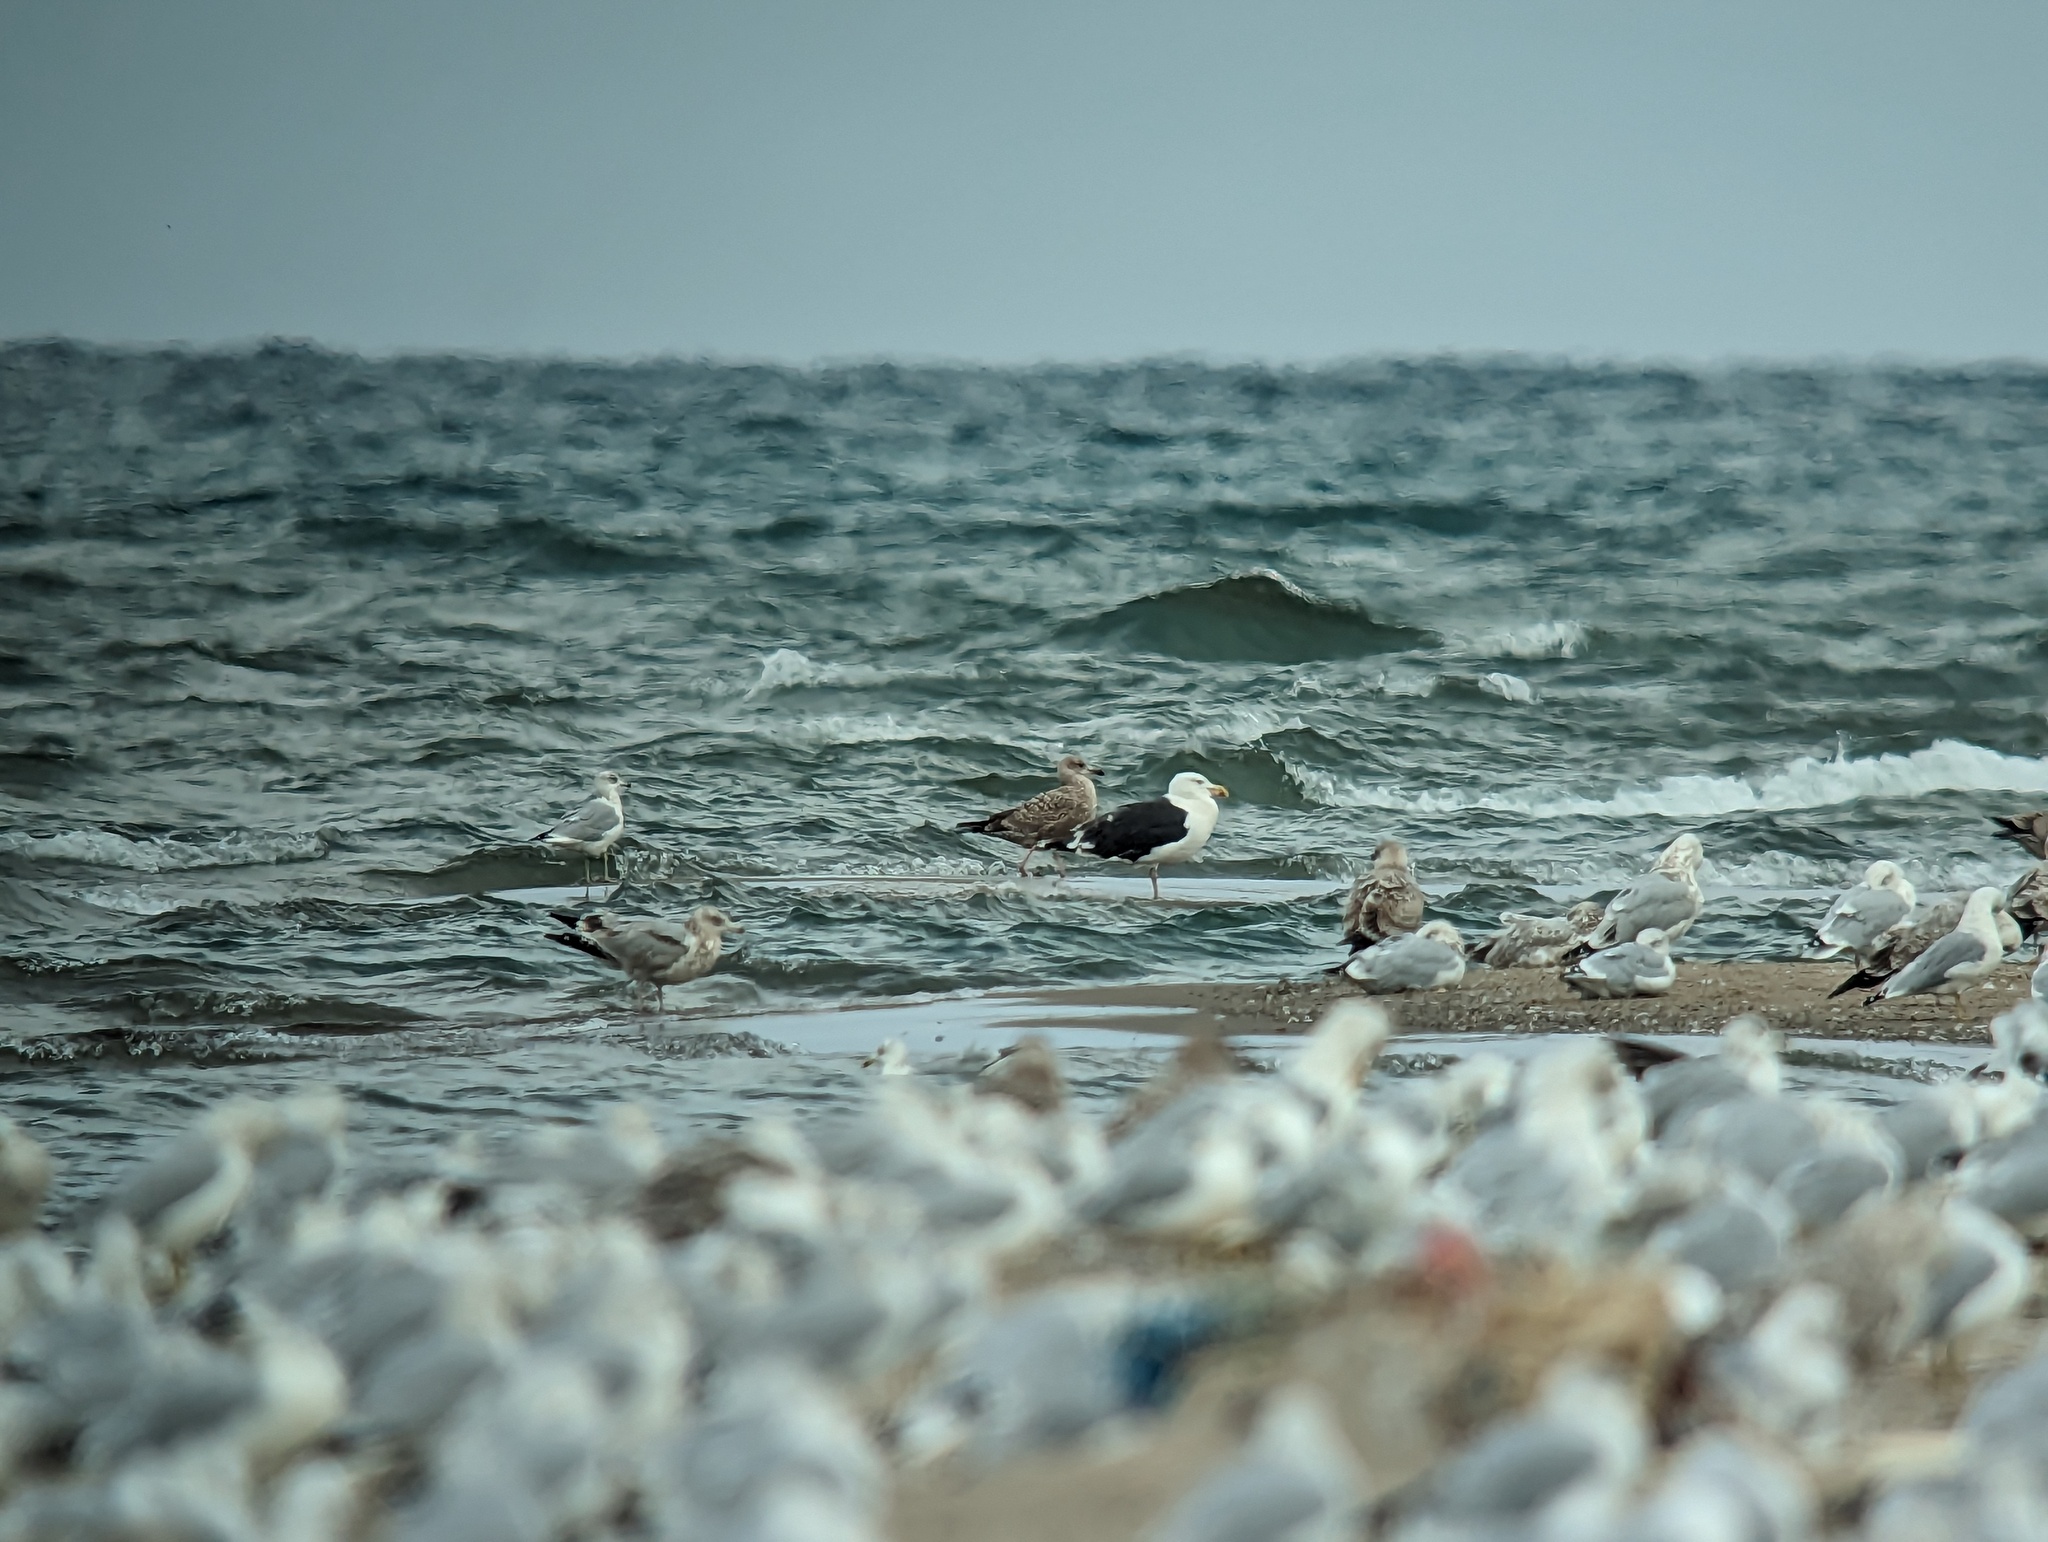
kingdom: Animalia
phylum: Chordata
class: Aves
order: Charadriiformes
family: Laridae
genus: Larus
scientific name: Larus marinus
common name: Great black-backed gull
